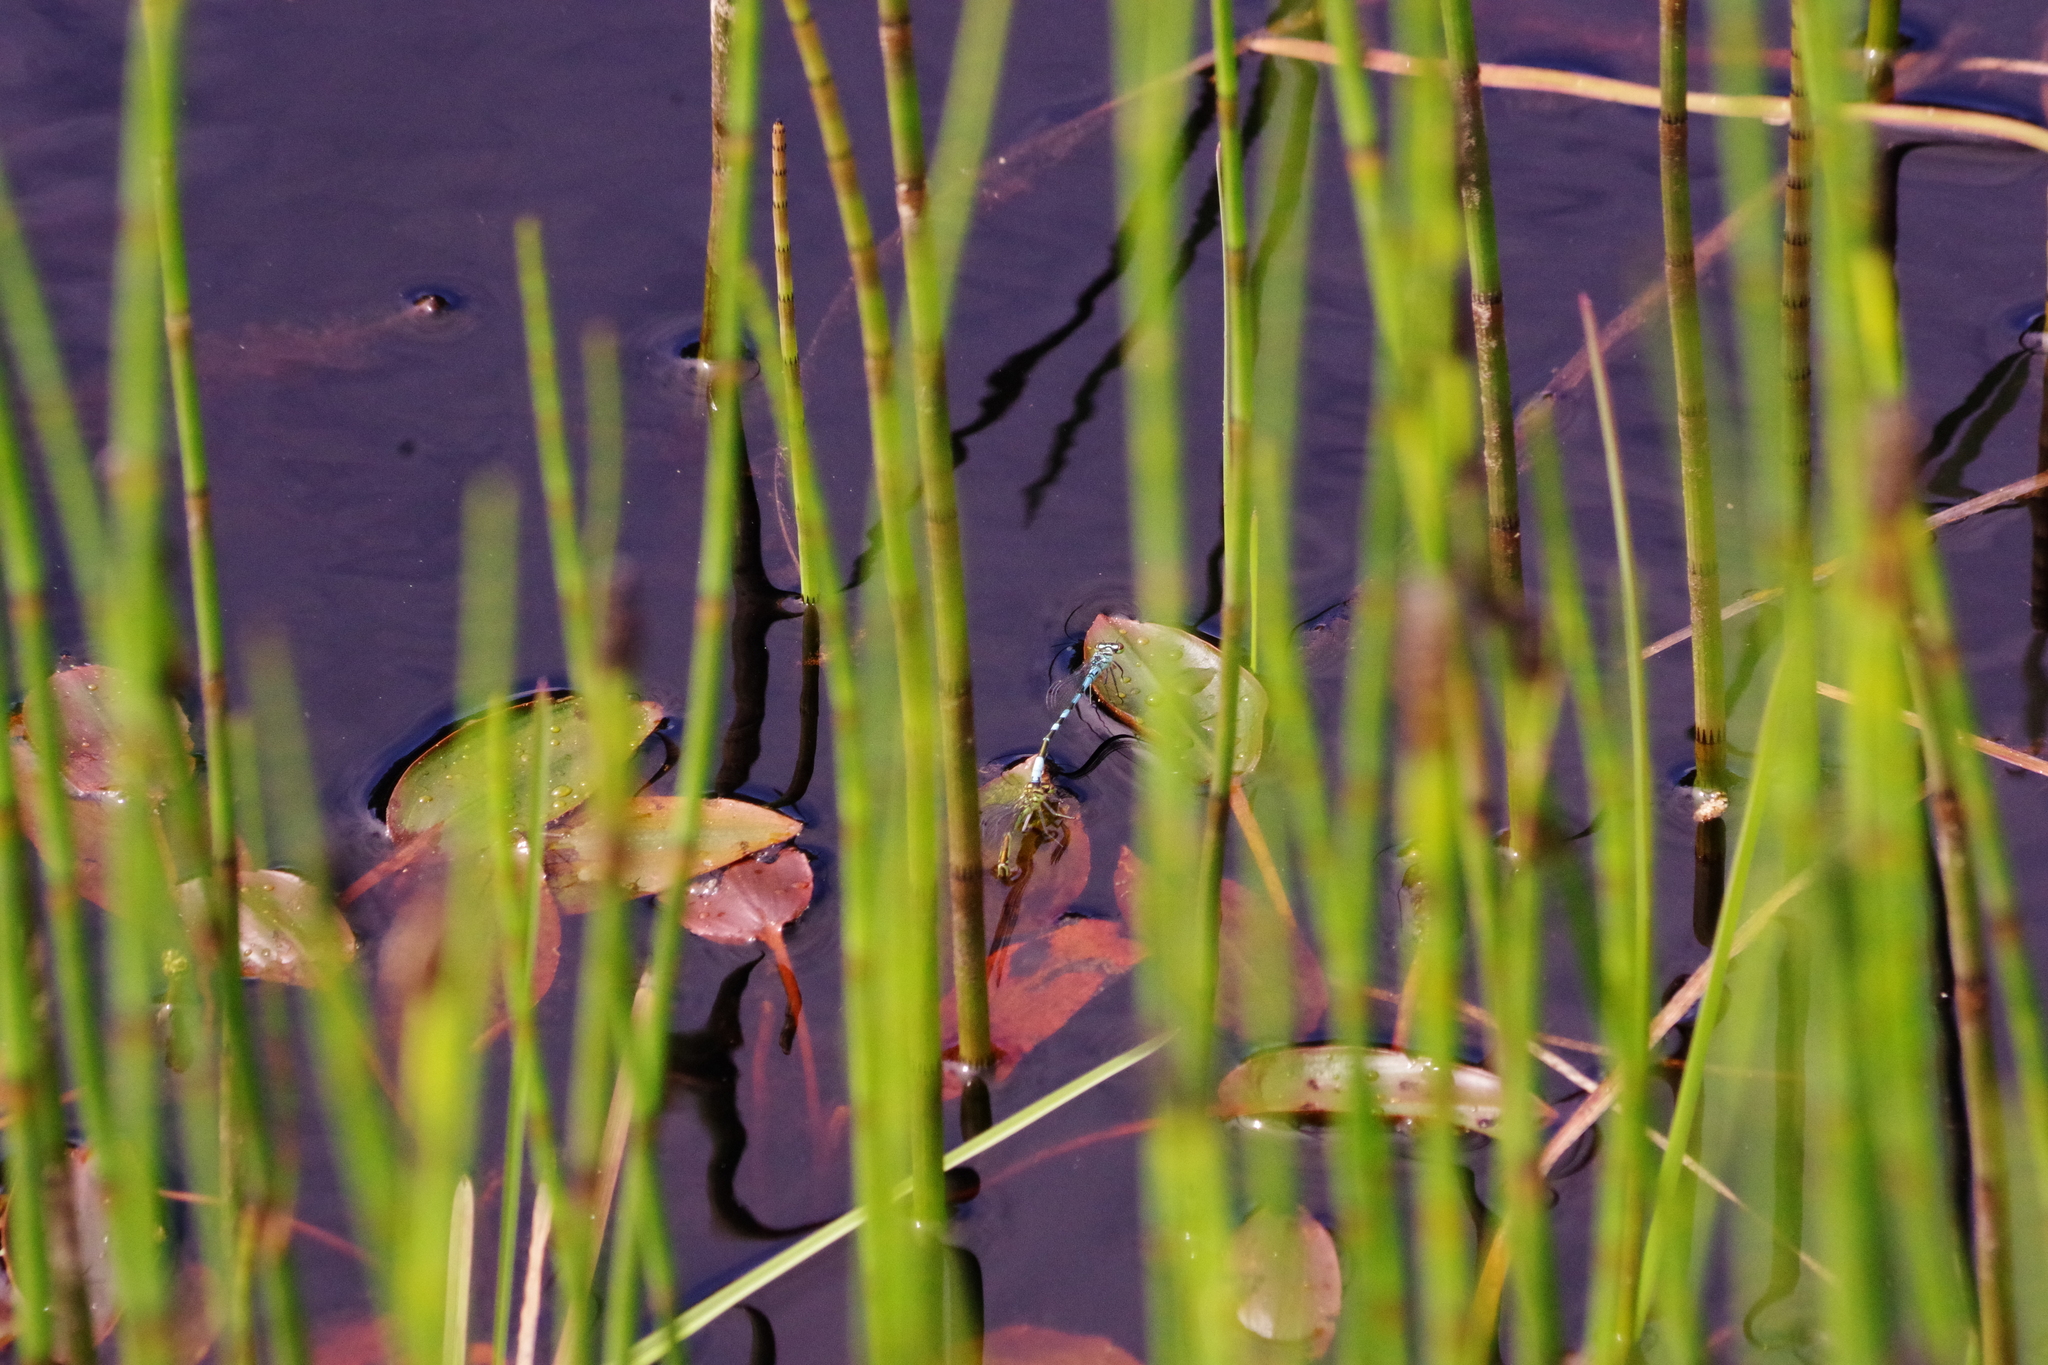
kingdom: Animalia
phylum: Arthropoda
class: Insecta
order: Odonata
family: Coenagrionidae
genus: Coenagrion
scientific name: Coenagrion hastulatum
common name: Spearhead bluet
